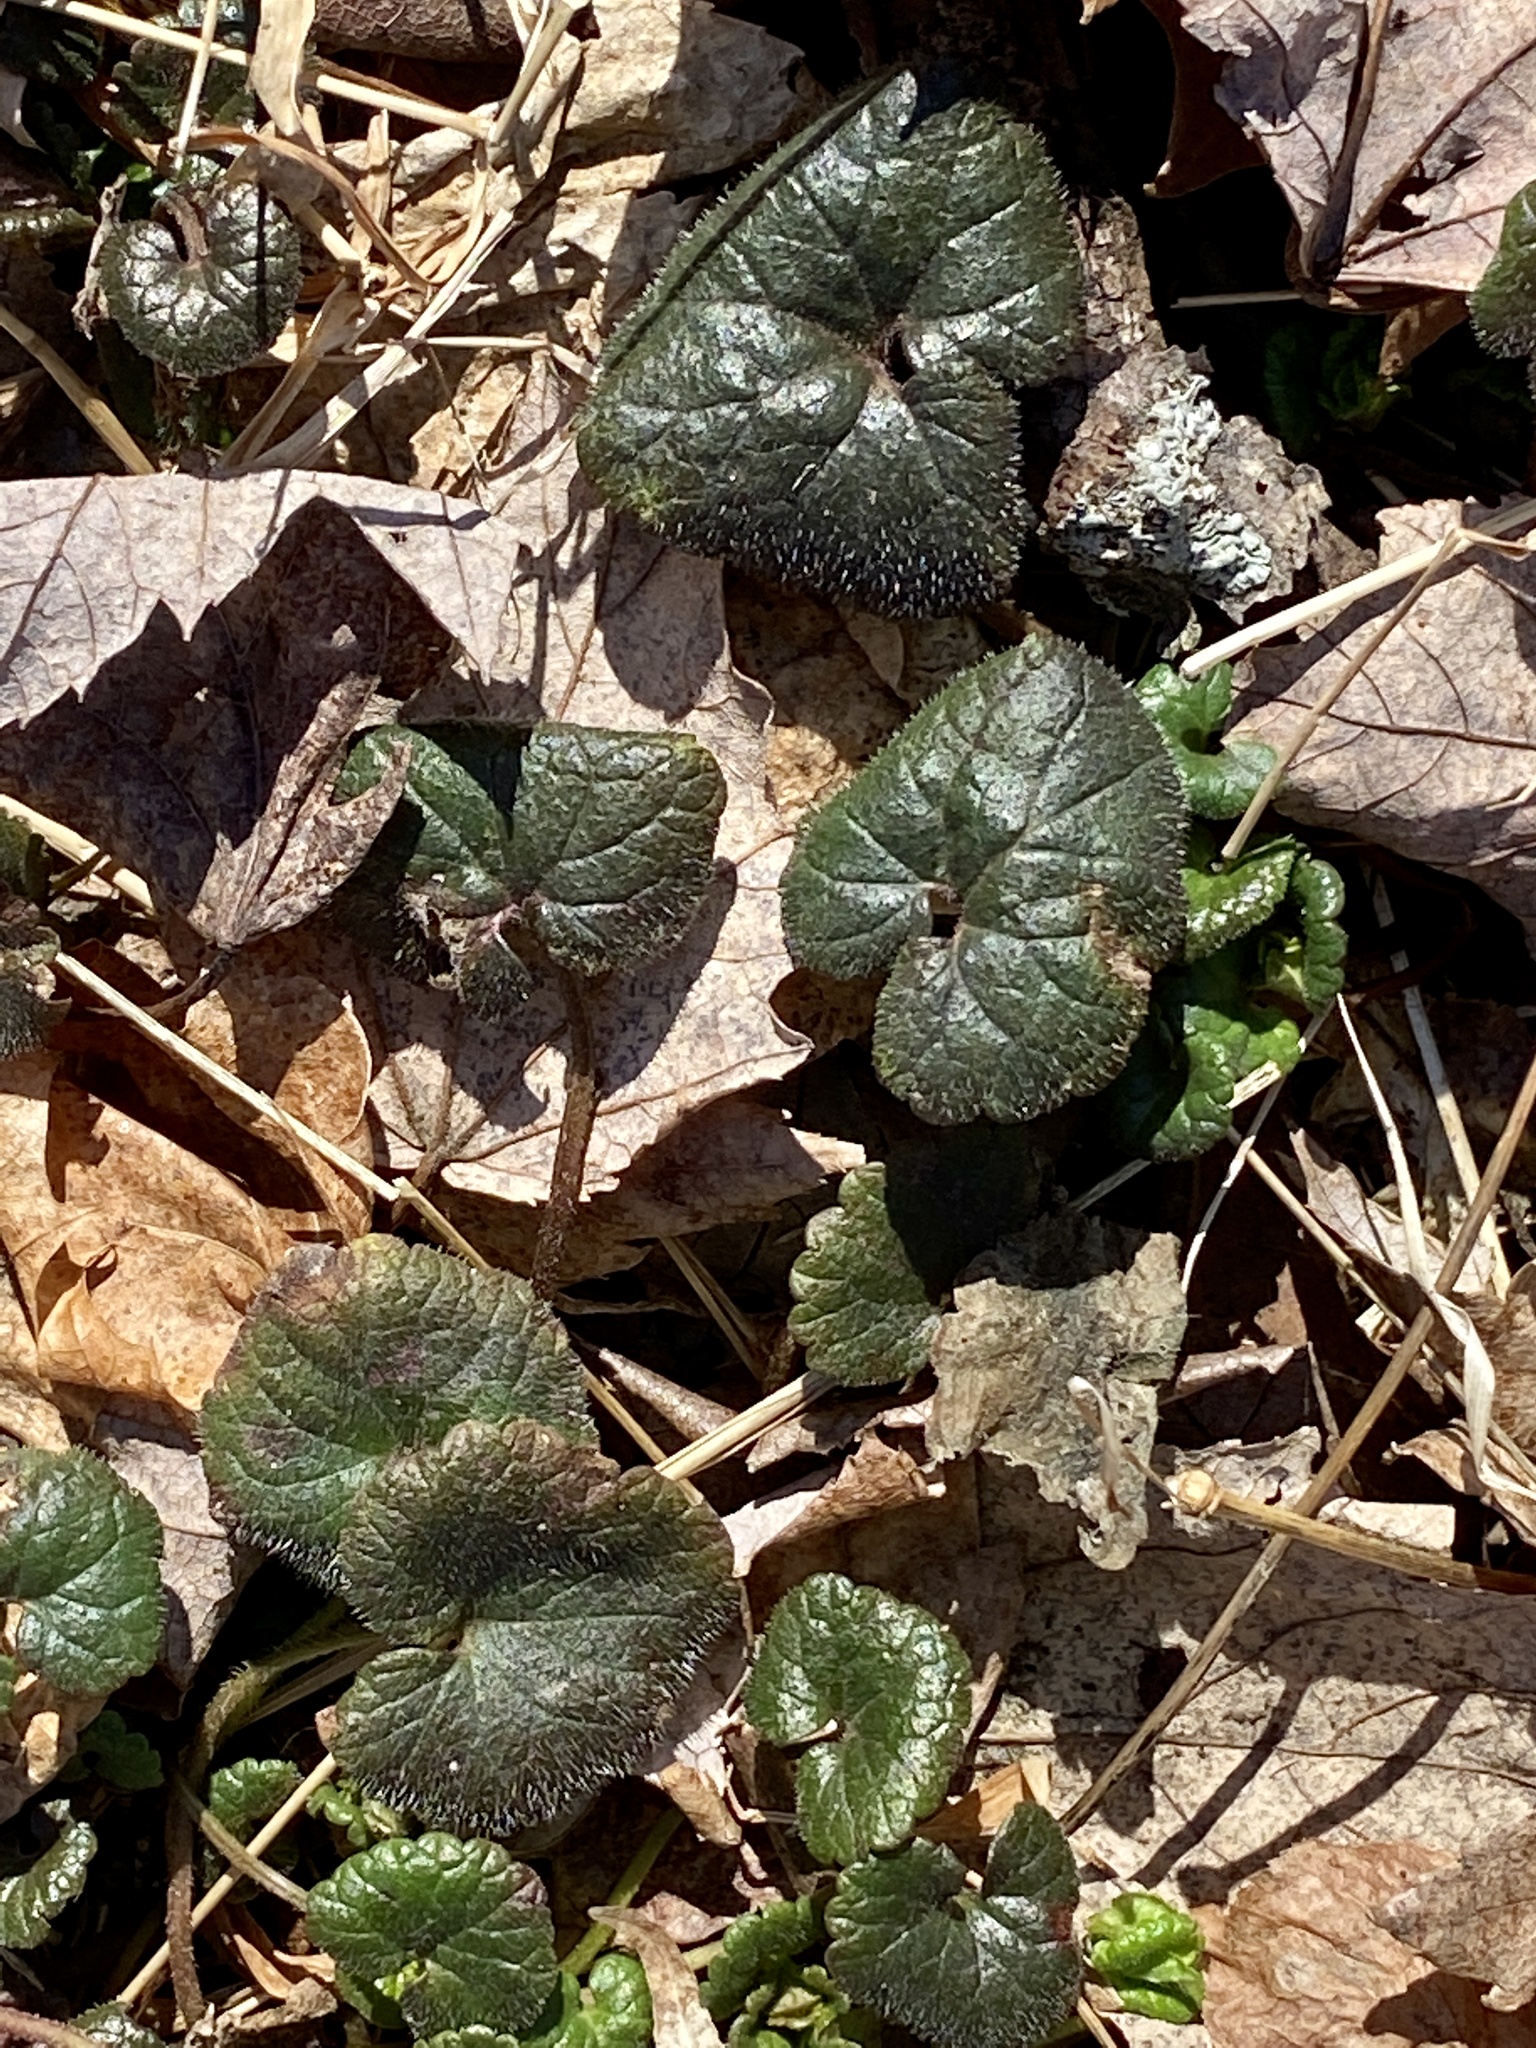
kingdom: Plantae
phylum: Tracheophyta
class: Magnoliopsida
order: Lamiales
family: Lamiaceae
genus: Glechoma
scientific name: Glechoma hederacea
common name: Ground ivy
